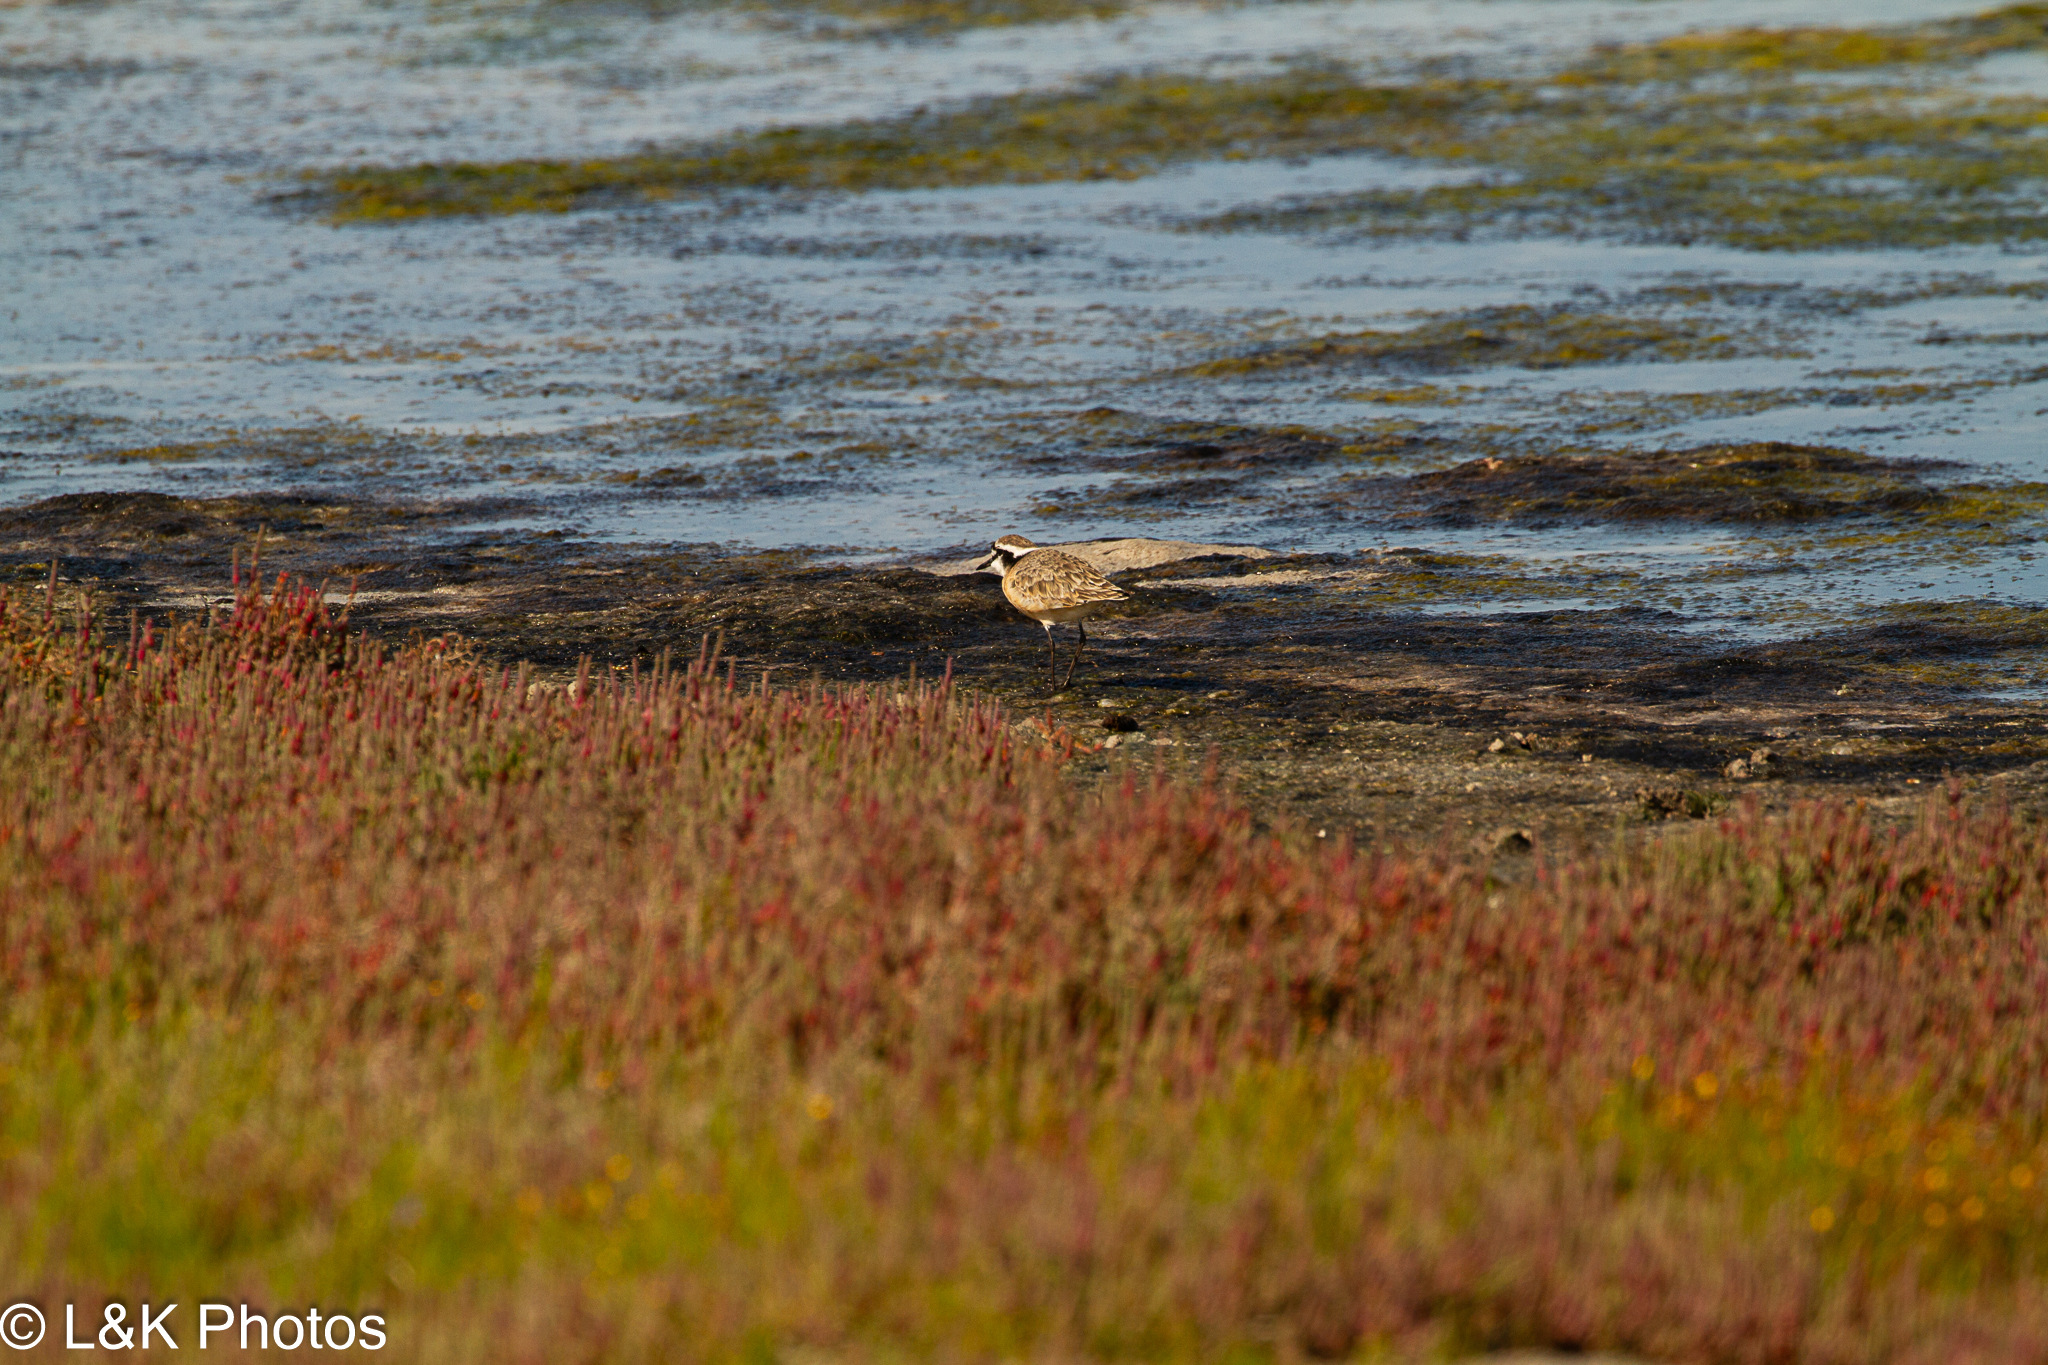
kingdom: Animalia
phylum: Chordata
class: Aves
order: Charadriiformes
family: Charadriidae
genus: Anarhynchus
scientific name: Anarhynchus
